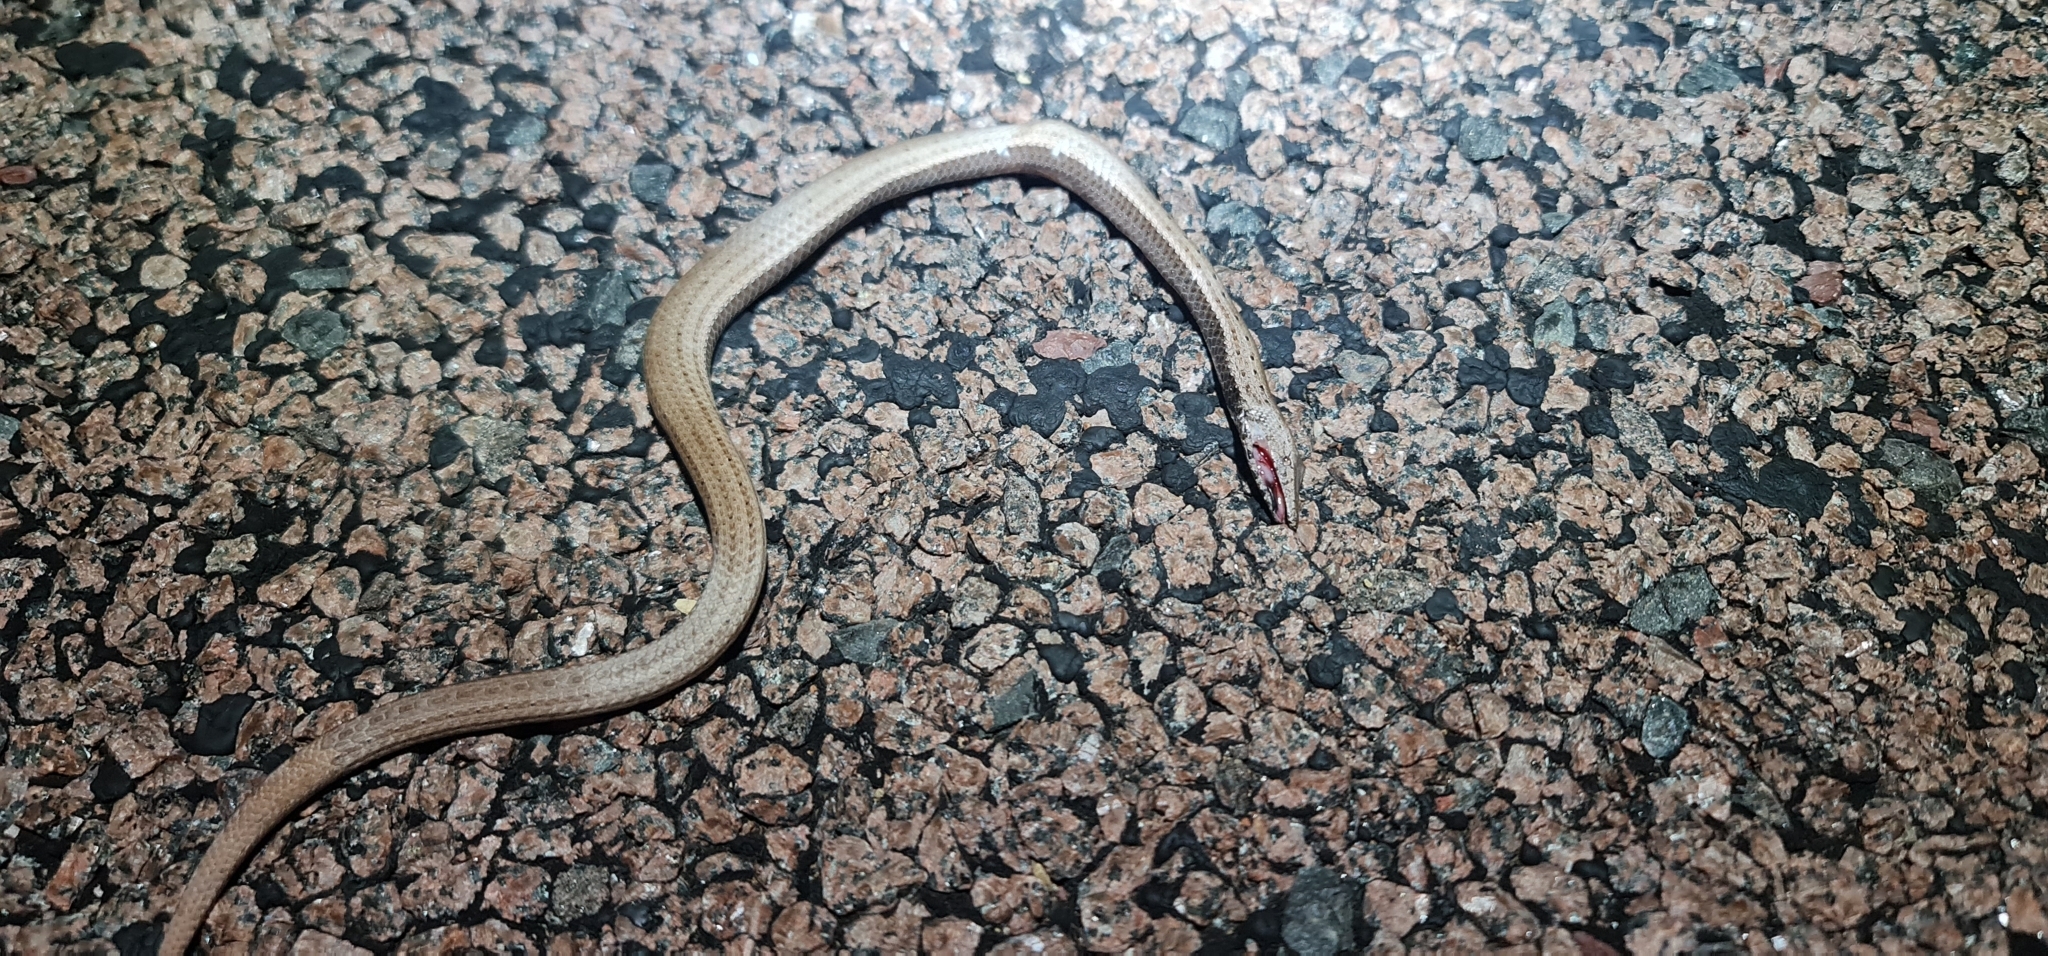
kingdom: Animalia
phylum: Chordata
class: Squamata
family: Pygopodidae
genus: Lialis
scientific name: Lialis burtonis
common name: Burton's legless lizard
